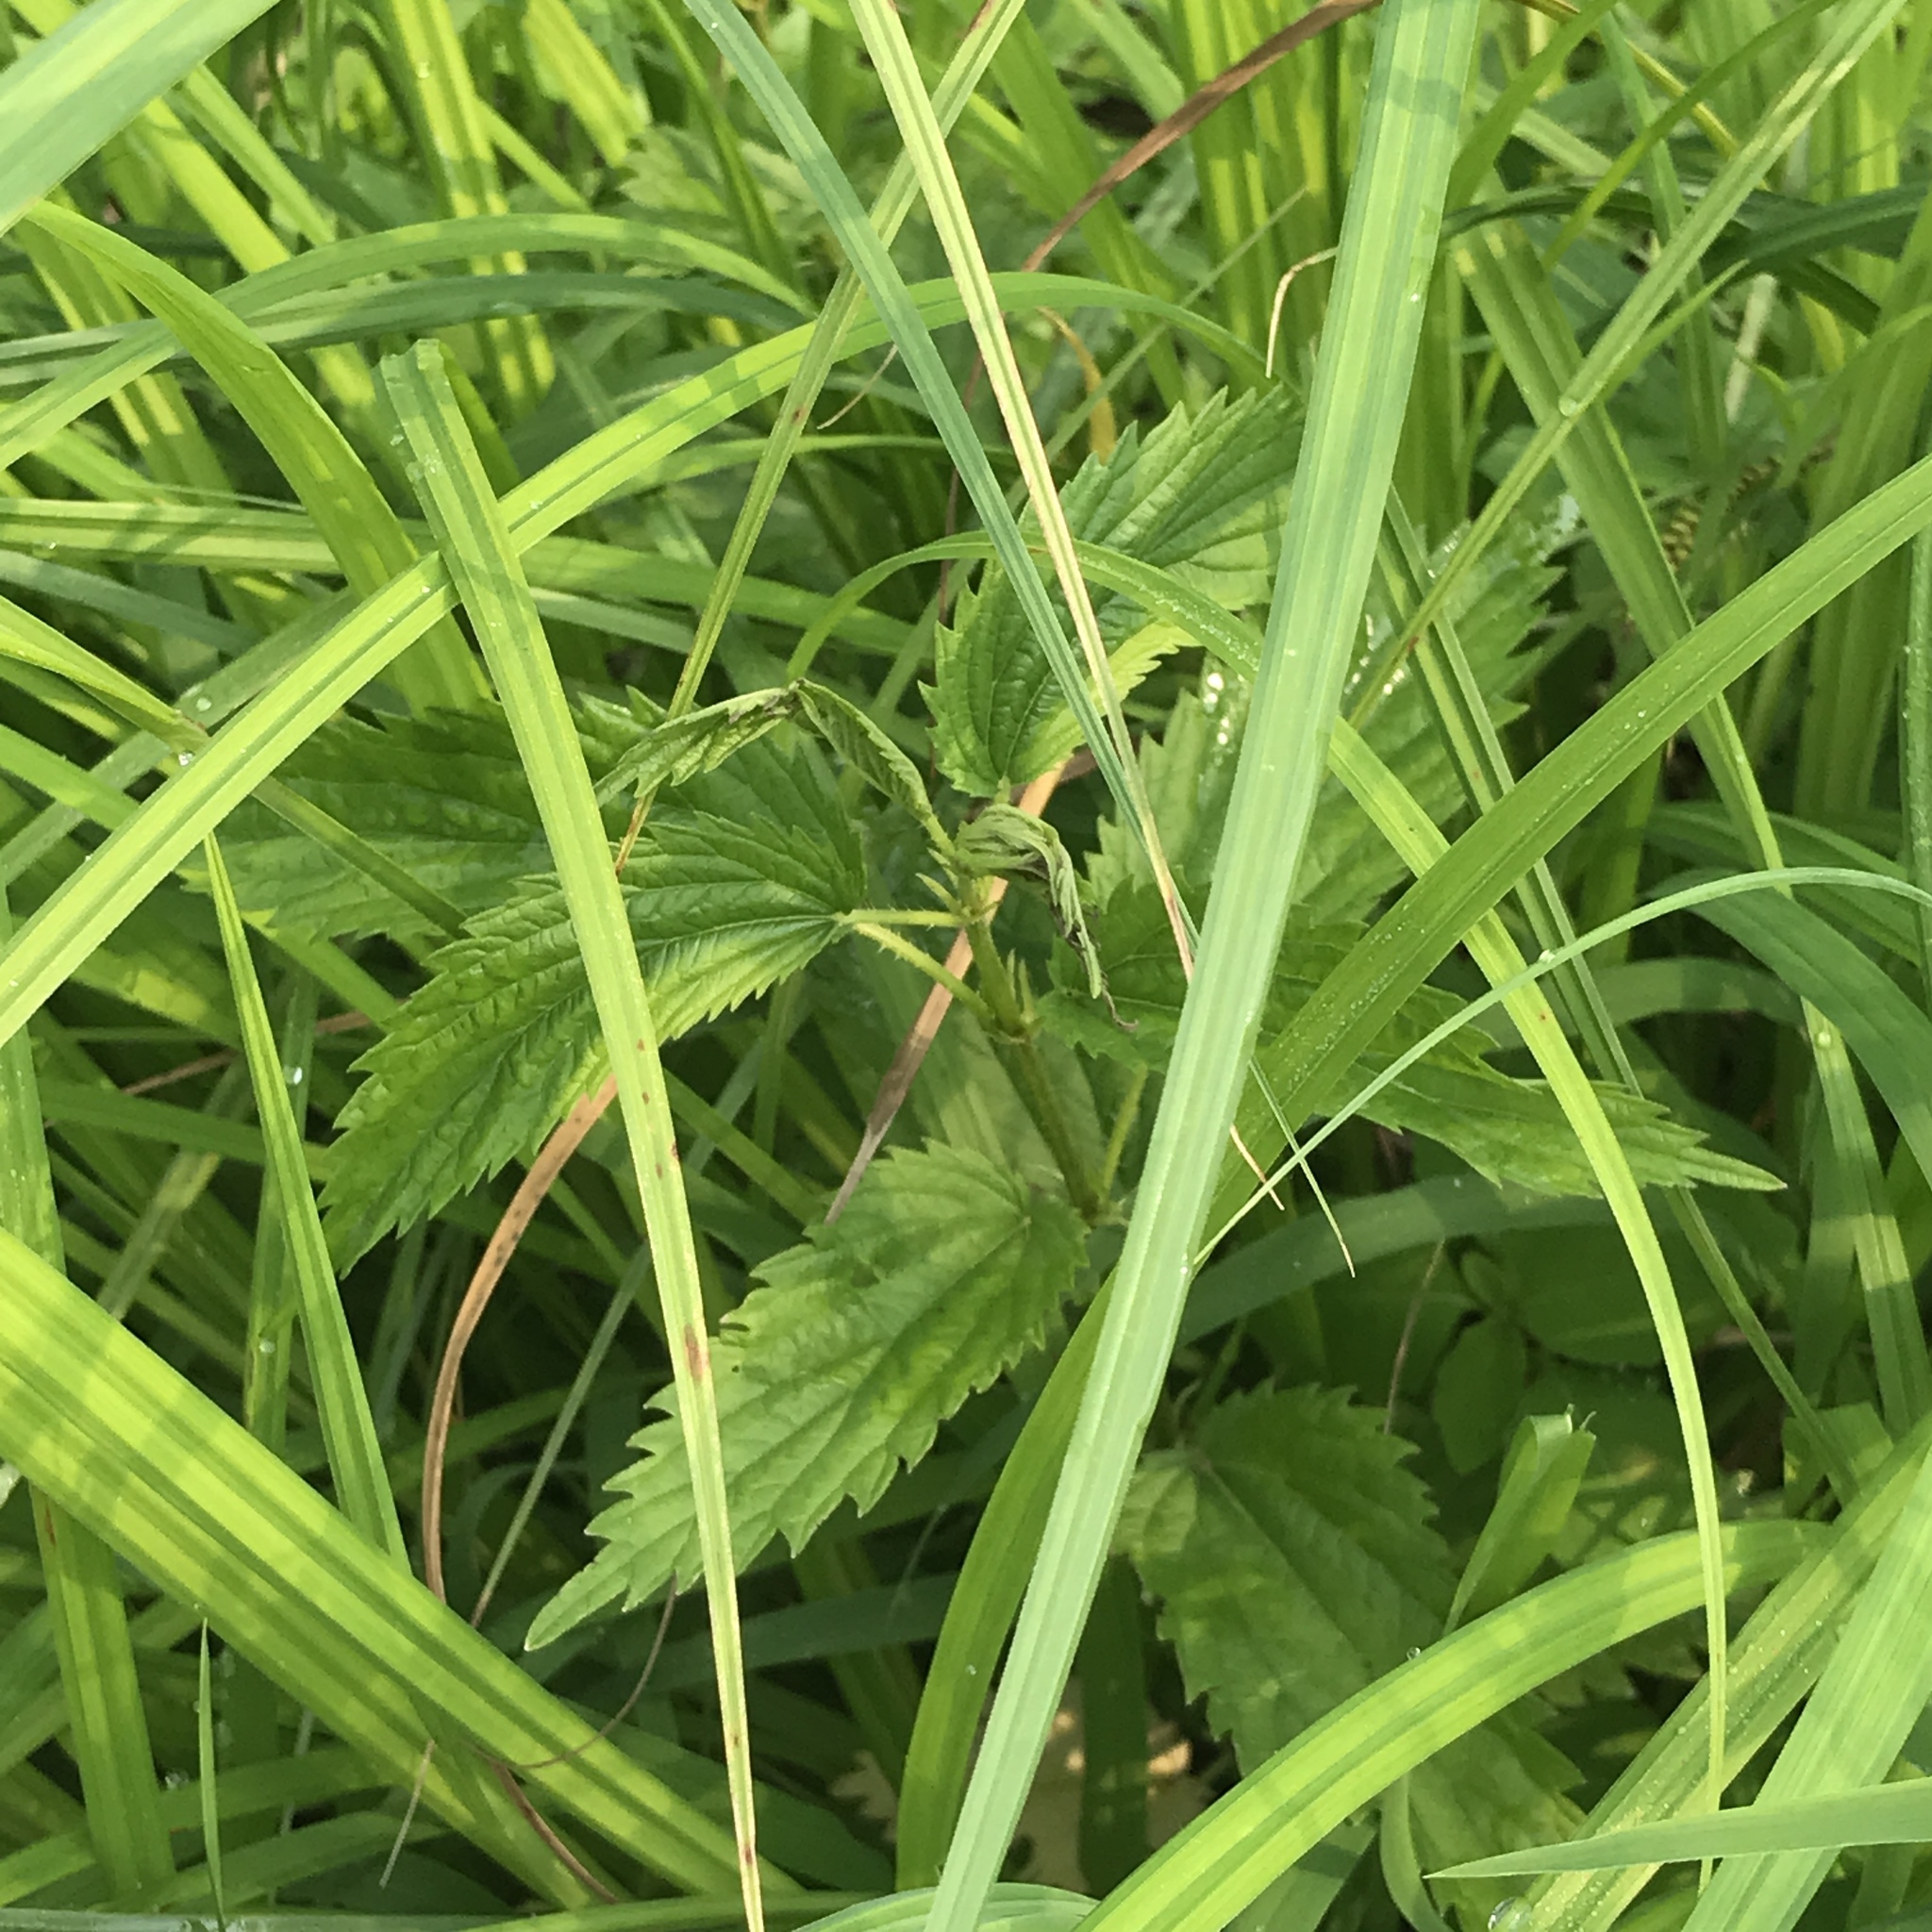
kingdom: Plantae
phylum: Tracheophyta
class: Magnoliopsida
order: Rosales
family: Urticaceae
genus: Urtica
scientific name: Urtica gracilis
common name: Slender stinging nettle
